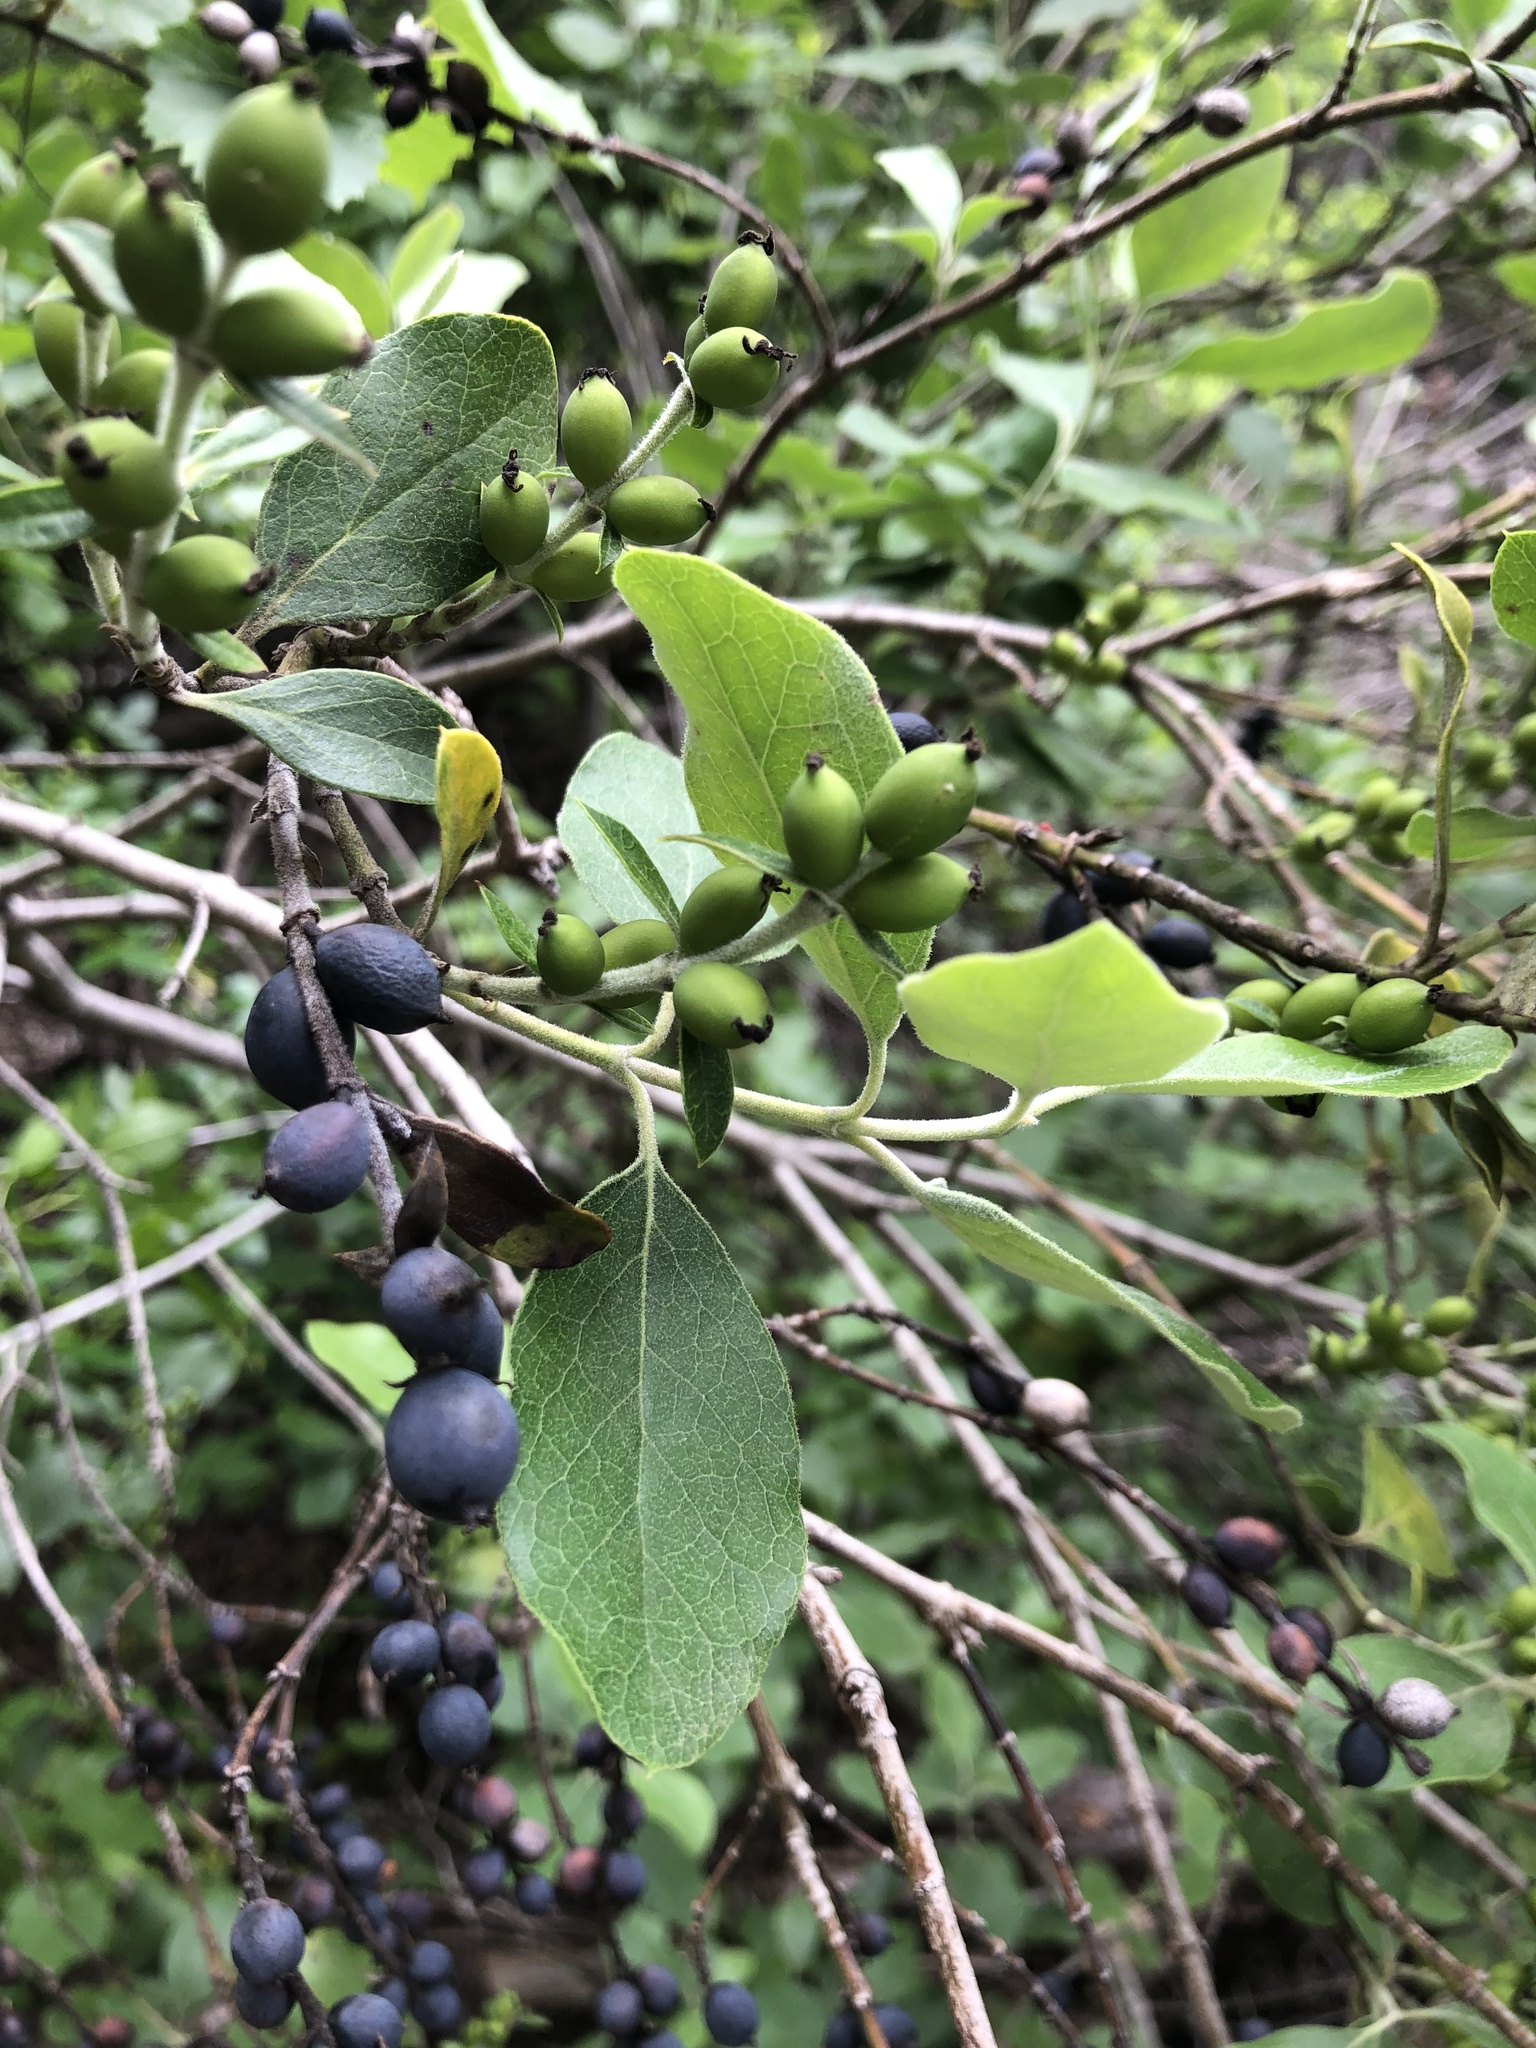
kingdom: Plantae
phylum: Tracheophyta
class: Magnoliopsida
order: Garryales
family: Garryaceae
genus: Garrya
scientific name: Garrya lindheimeri
